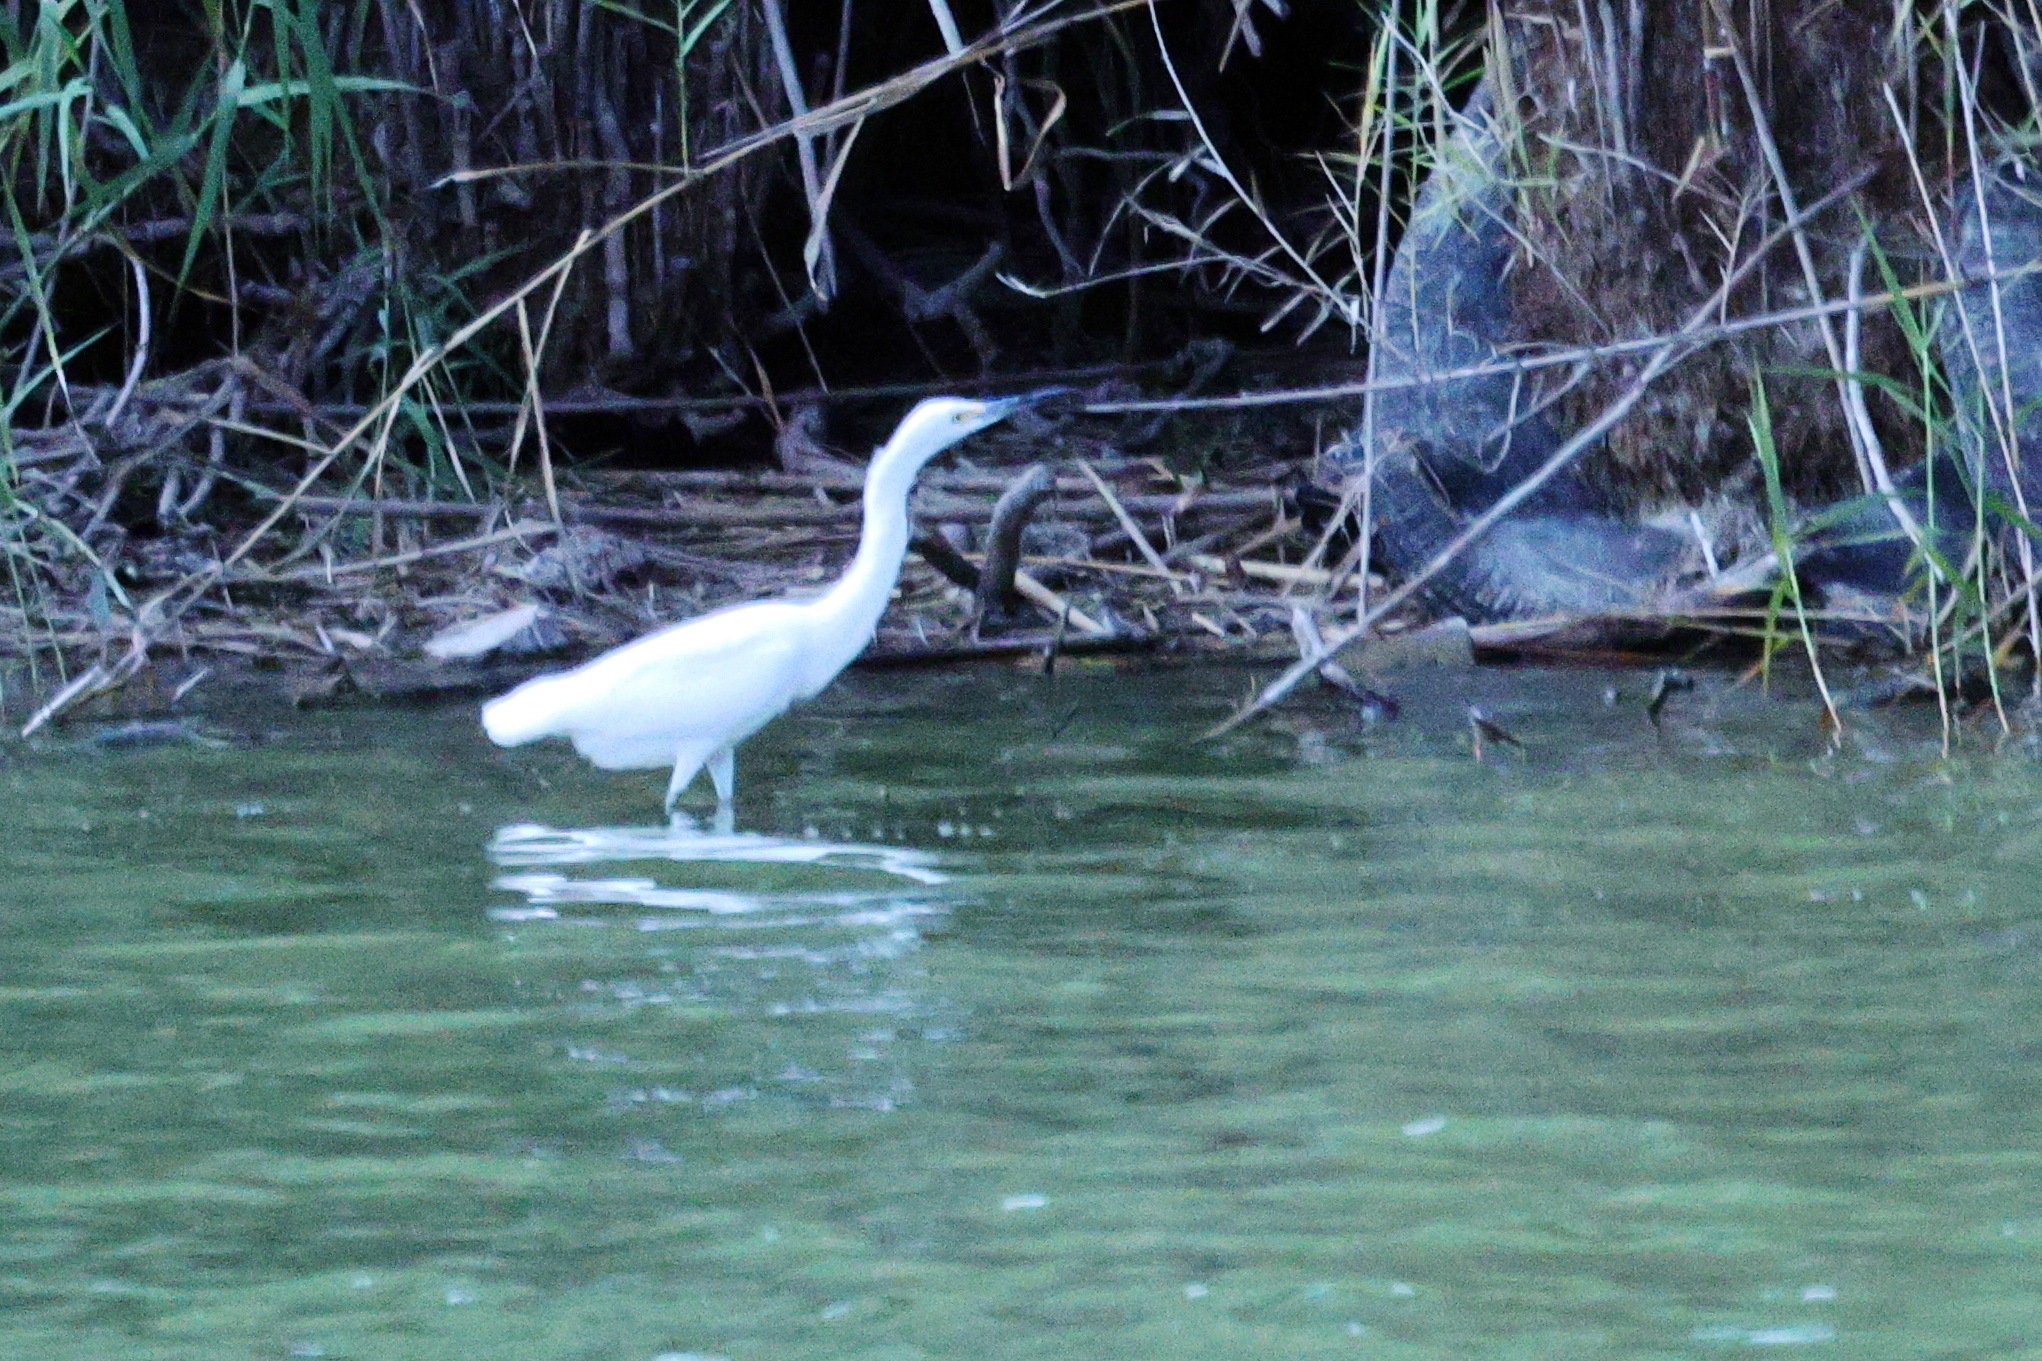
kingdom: Animalia
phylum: Chordata
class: Aves
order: Pelecaniformes
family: Ardeidae
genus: Egretta
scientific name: Egretta thula
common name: Snowy egret
